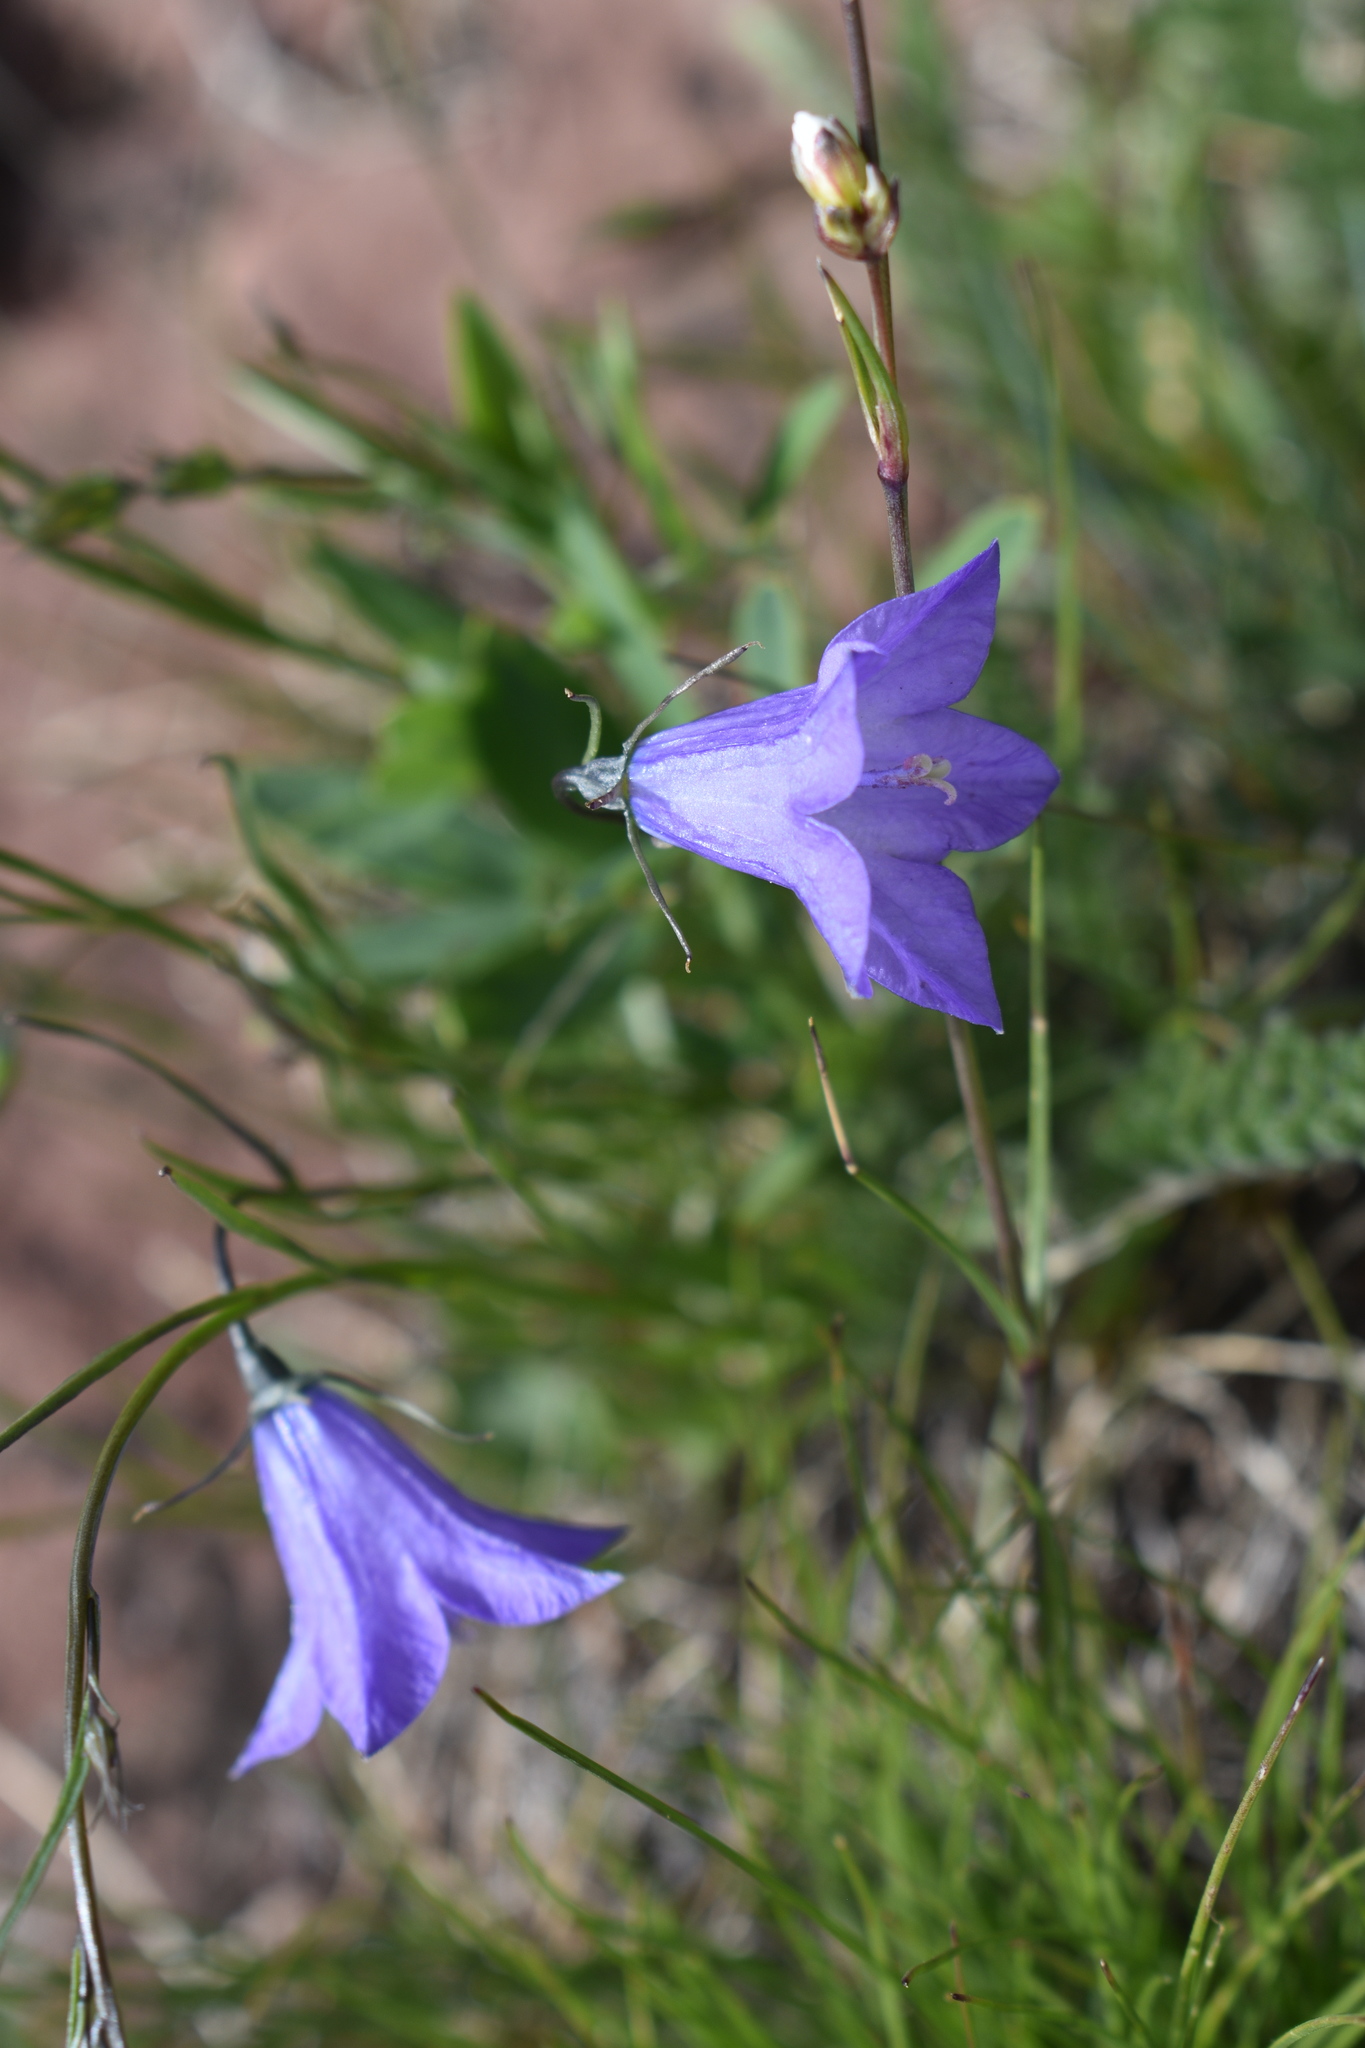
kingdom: Plantae
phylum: Tracheophyta
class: Magnoliopsida
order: Asterales
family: Campanulaceae
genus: Campanula
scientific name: Campanula petiolata
